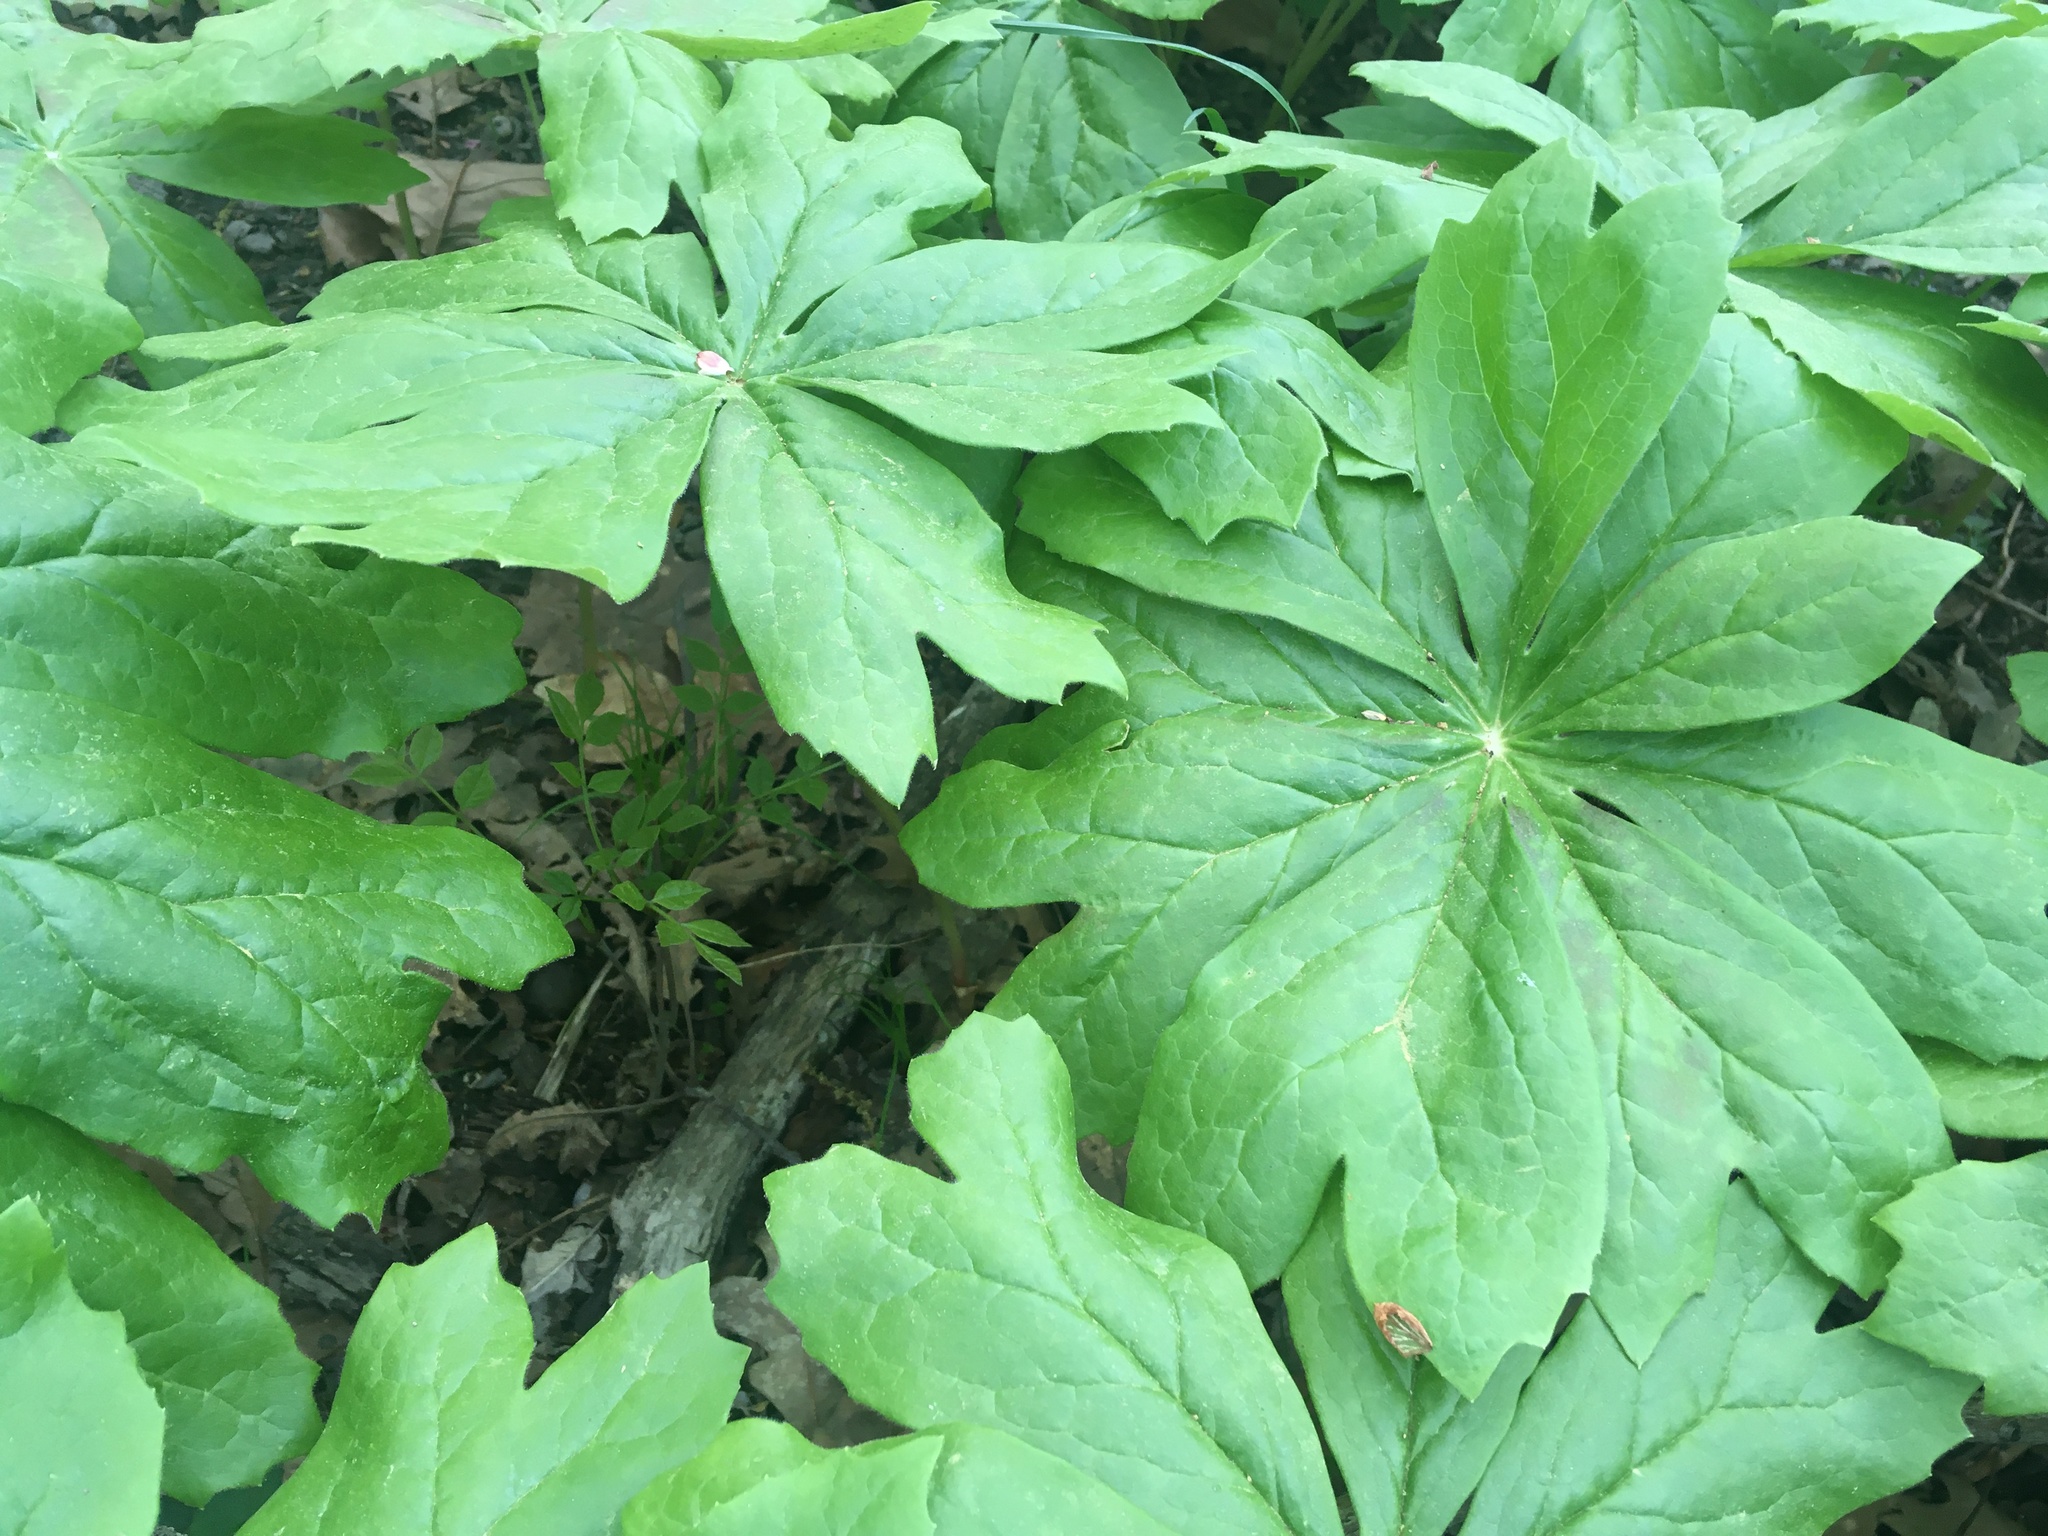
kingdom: Plantae
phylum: Tracheophyta
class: Magnoliopsida
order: Ranunculales
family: Berberidaceae
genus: Podophyllum
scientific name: Podophyllum peltatum
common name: Wild mandrake
